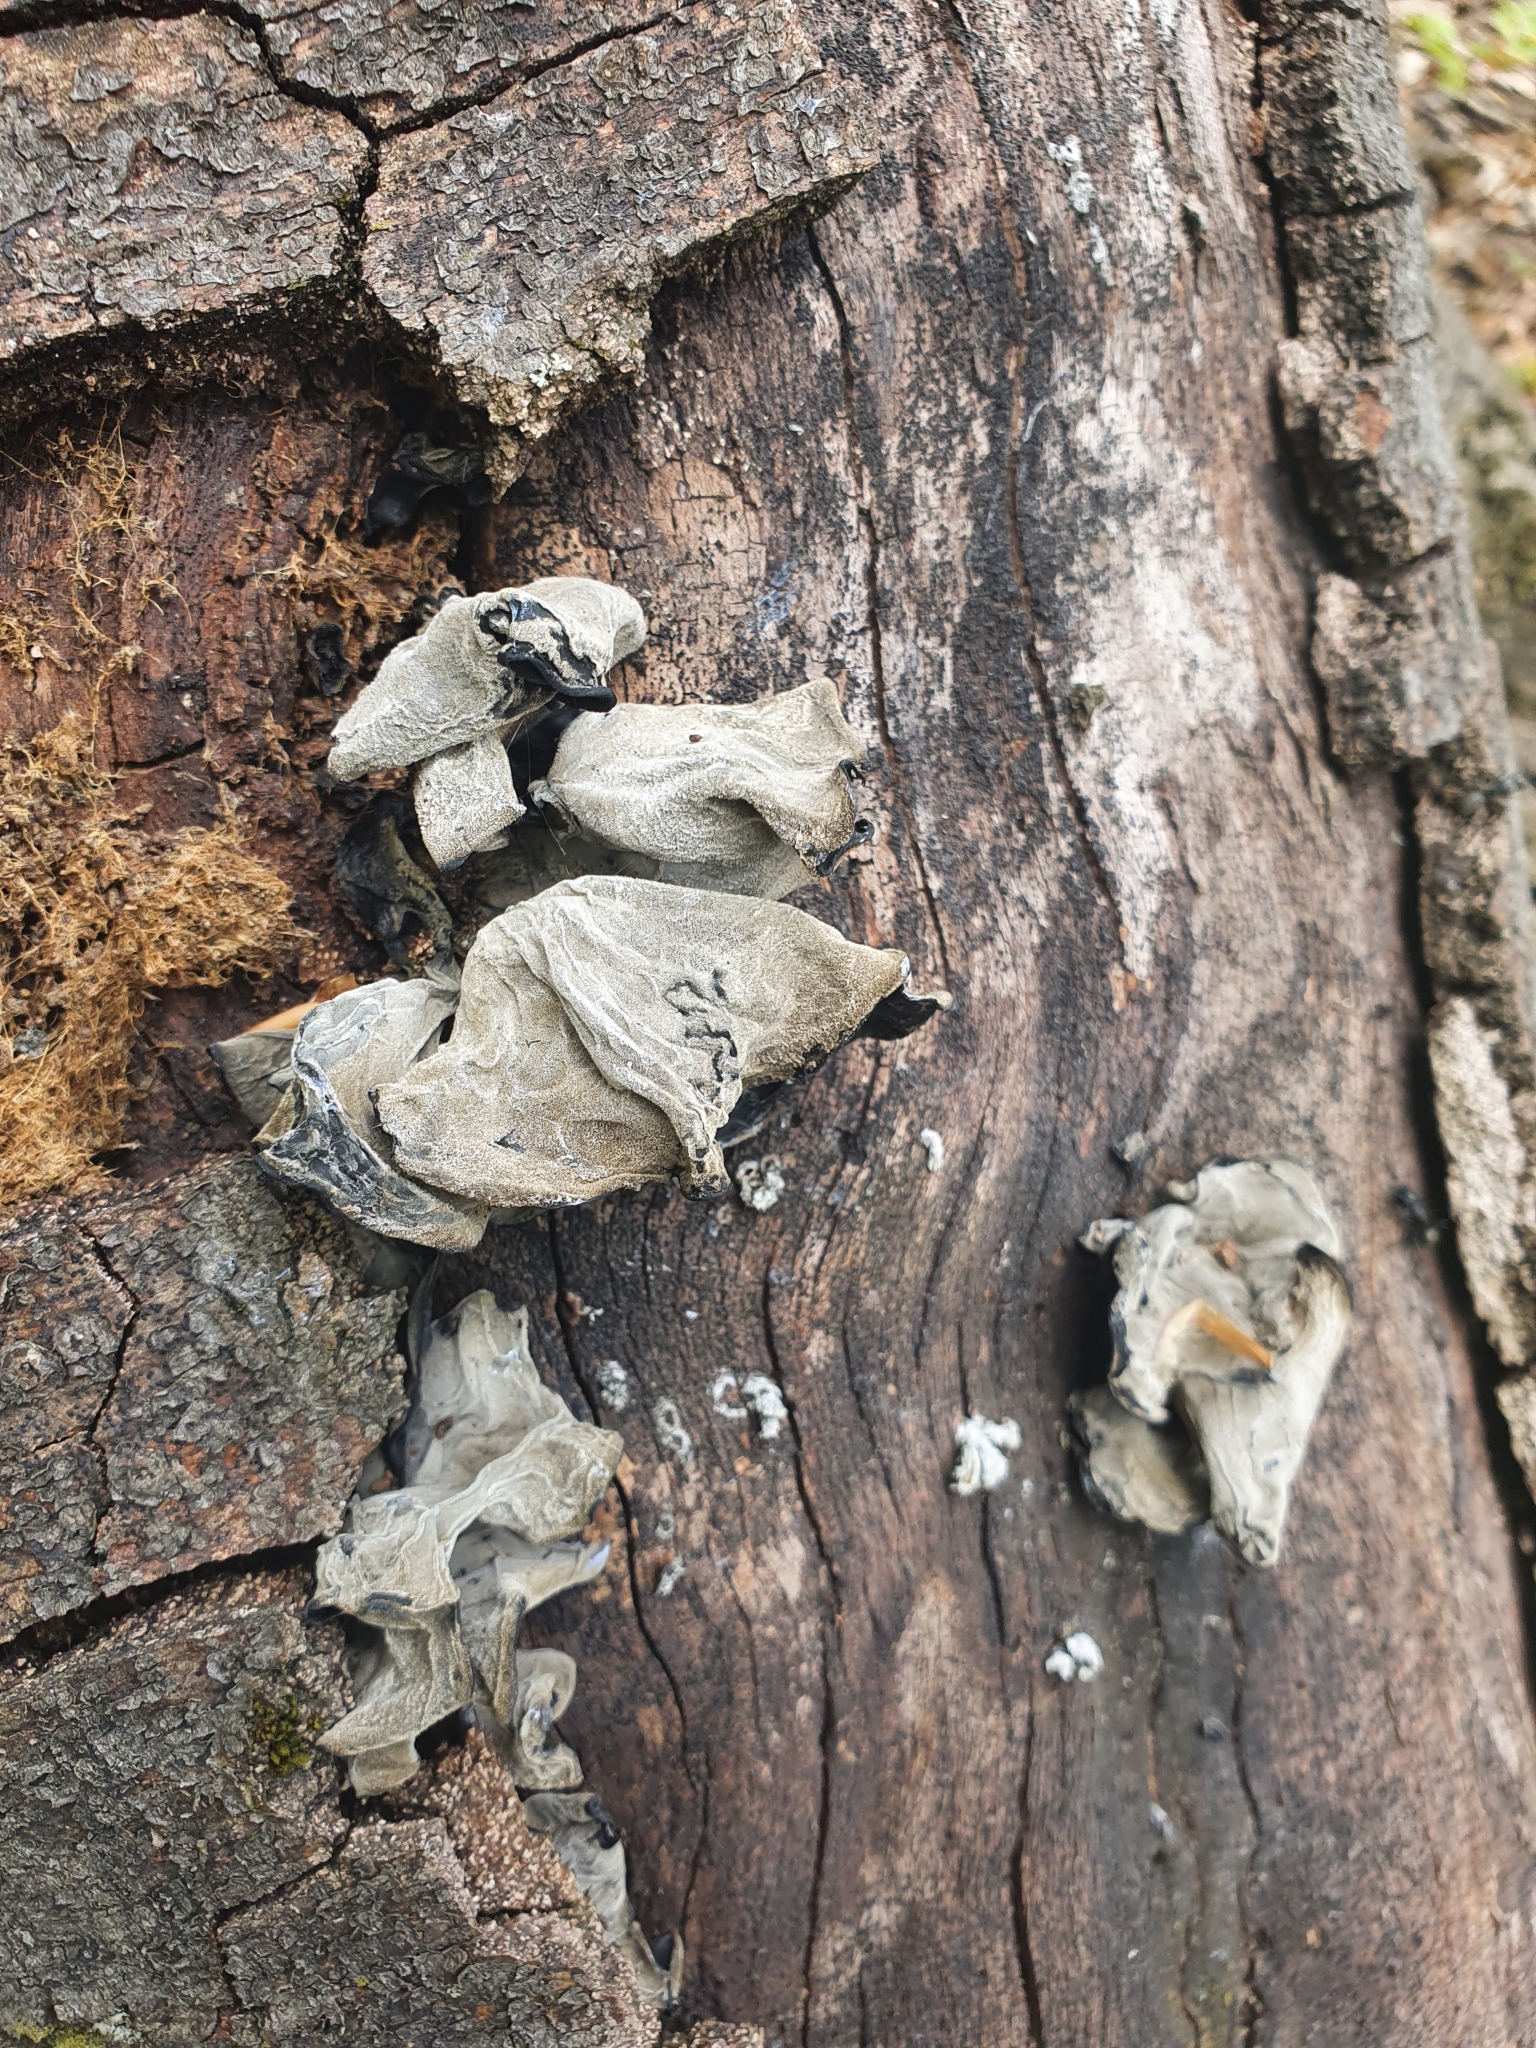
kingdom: Fungi
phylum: Basidiomycota
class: Agaricomycetes
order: Auriculariales
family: Auriculariaceae
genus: Auricularia
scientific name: Auricularia auricula-judae
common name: Jelly ear
